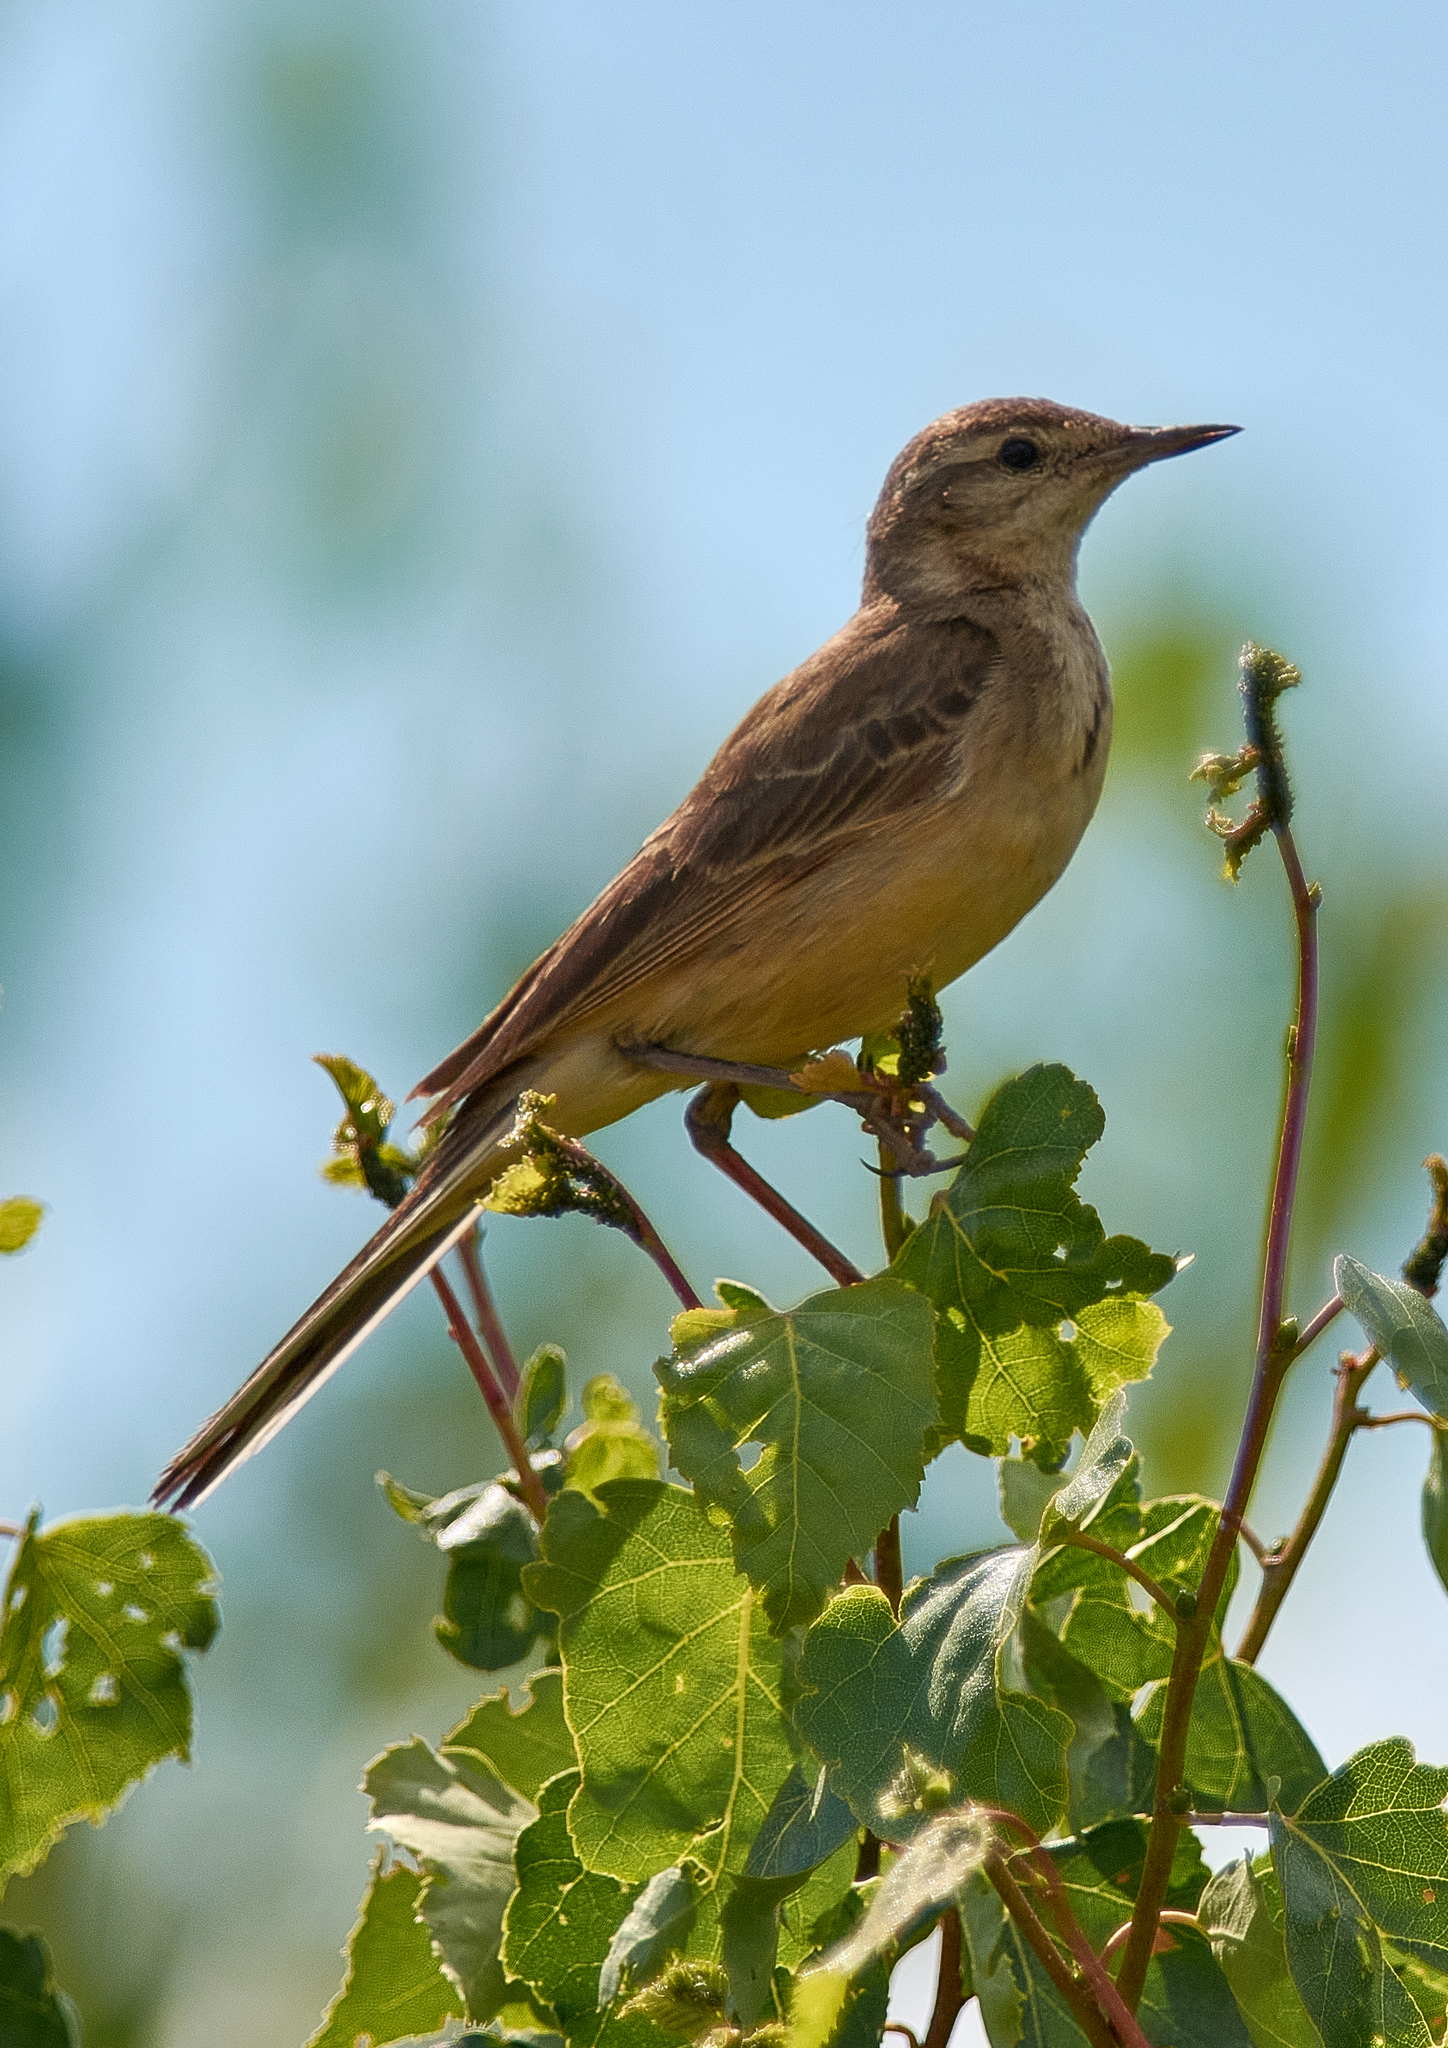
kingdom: Animalia
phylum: Chordata
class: Aves
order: Passeriformes
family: Motacillidae
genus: Motacilla
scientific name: Motacilla flava
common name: Western yellow wagtail
